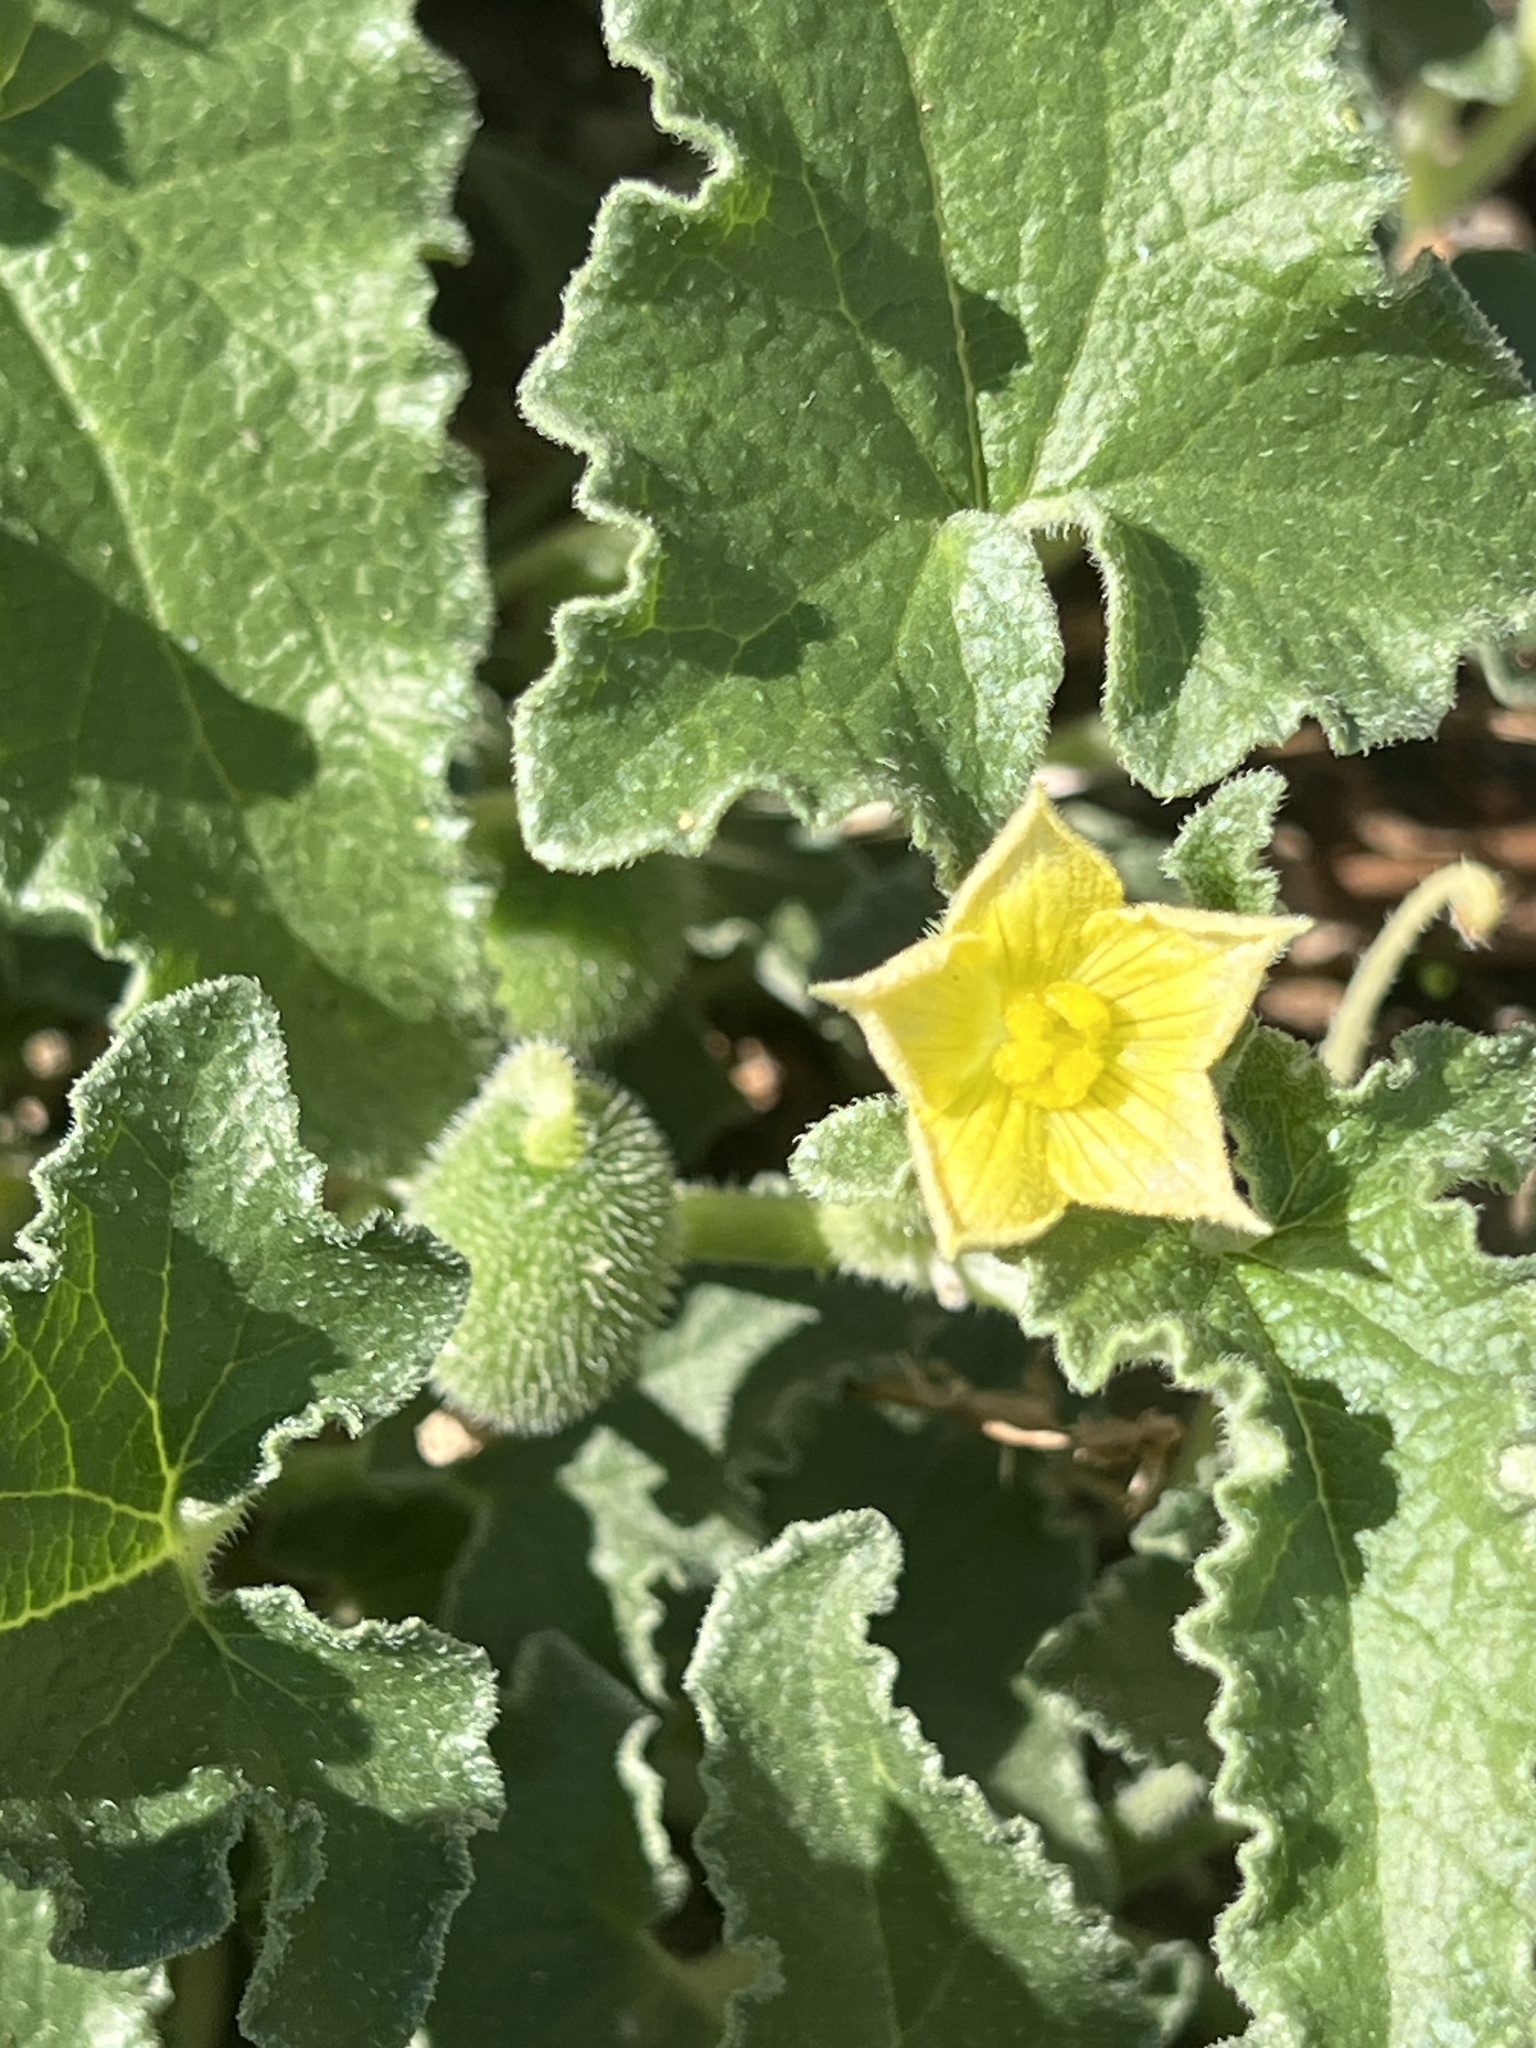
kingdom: Plantae
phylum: Tracheophyta
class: Magnoliopsida
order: Cucurbitales
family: Cucurbitaceae
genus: Ecballium
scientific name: Ecballium elaterium
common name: Squirting cucumber
